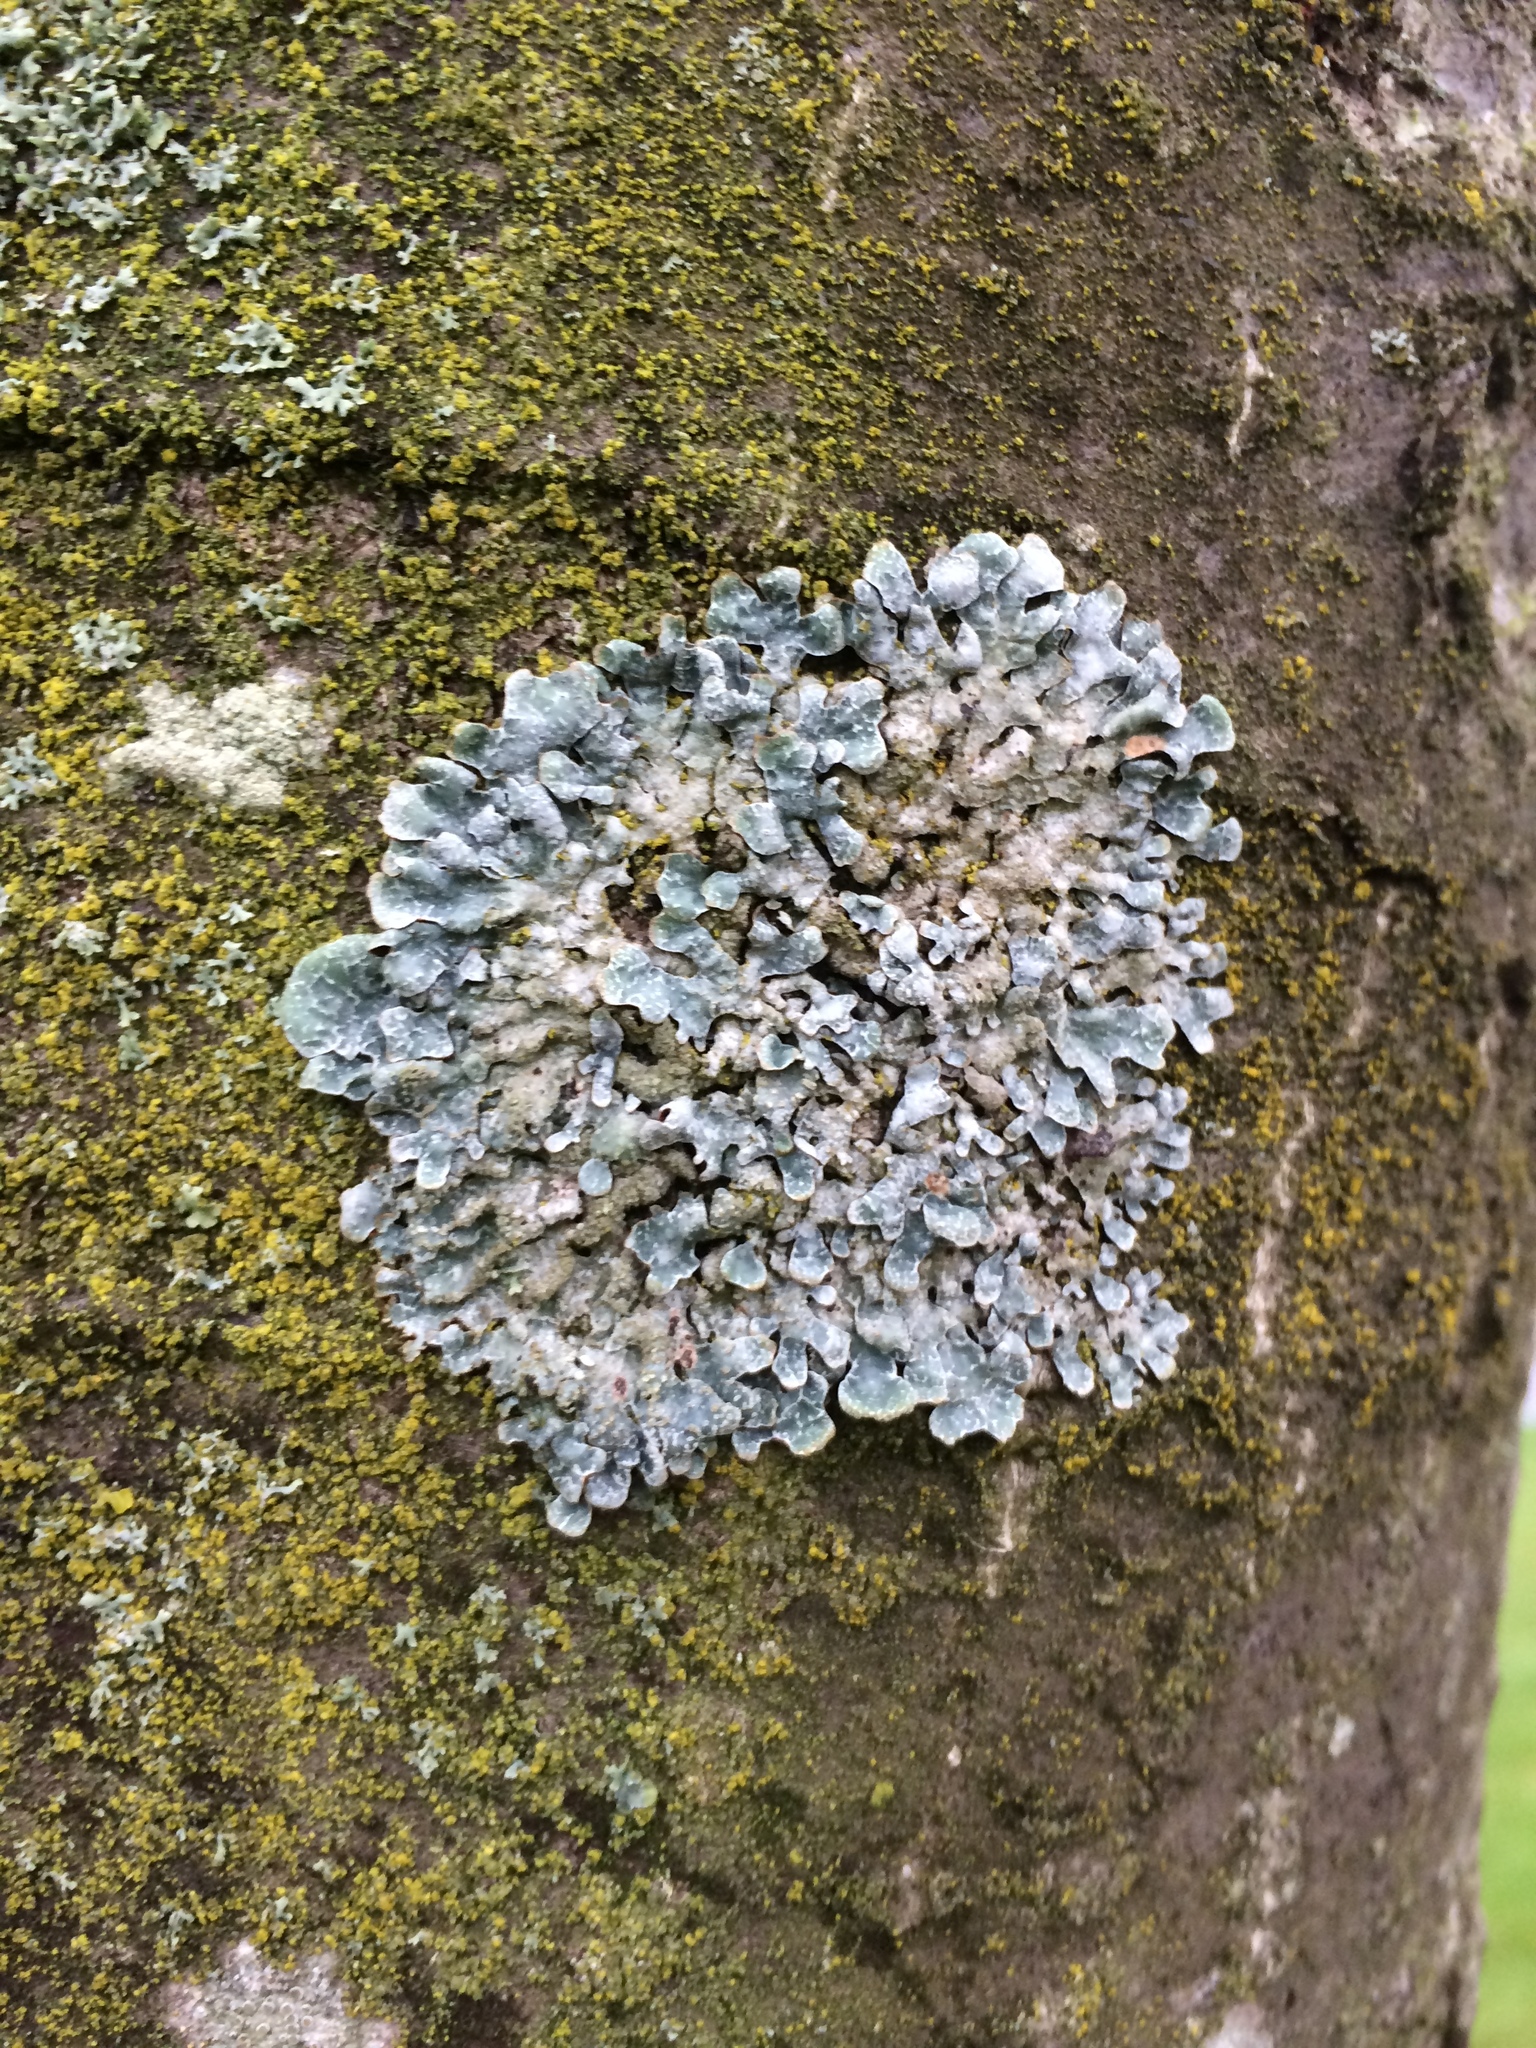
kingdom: Fungi
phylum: Ascomycota
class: Lecanoromycetes
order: Lecanorales
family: Parmeliaceae
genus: Parmelia
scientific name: Parmelia sulcata
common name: Netted shield lichen
